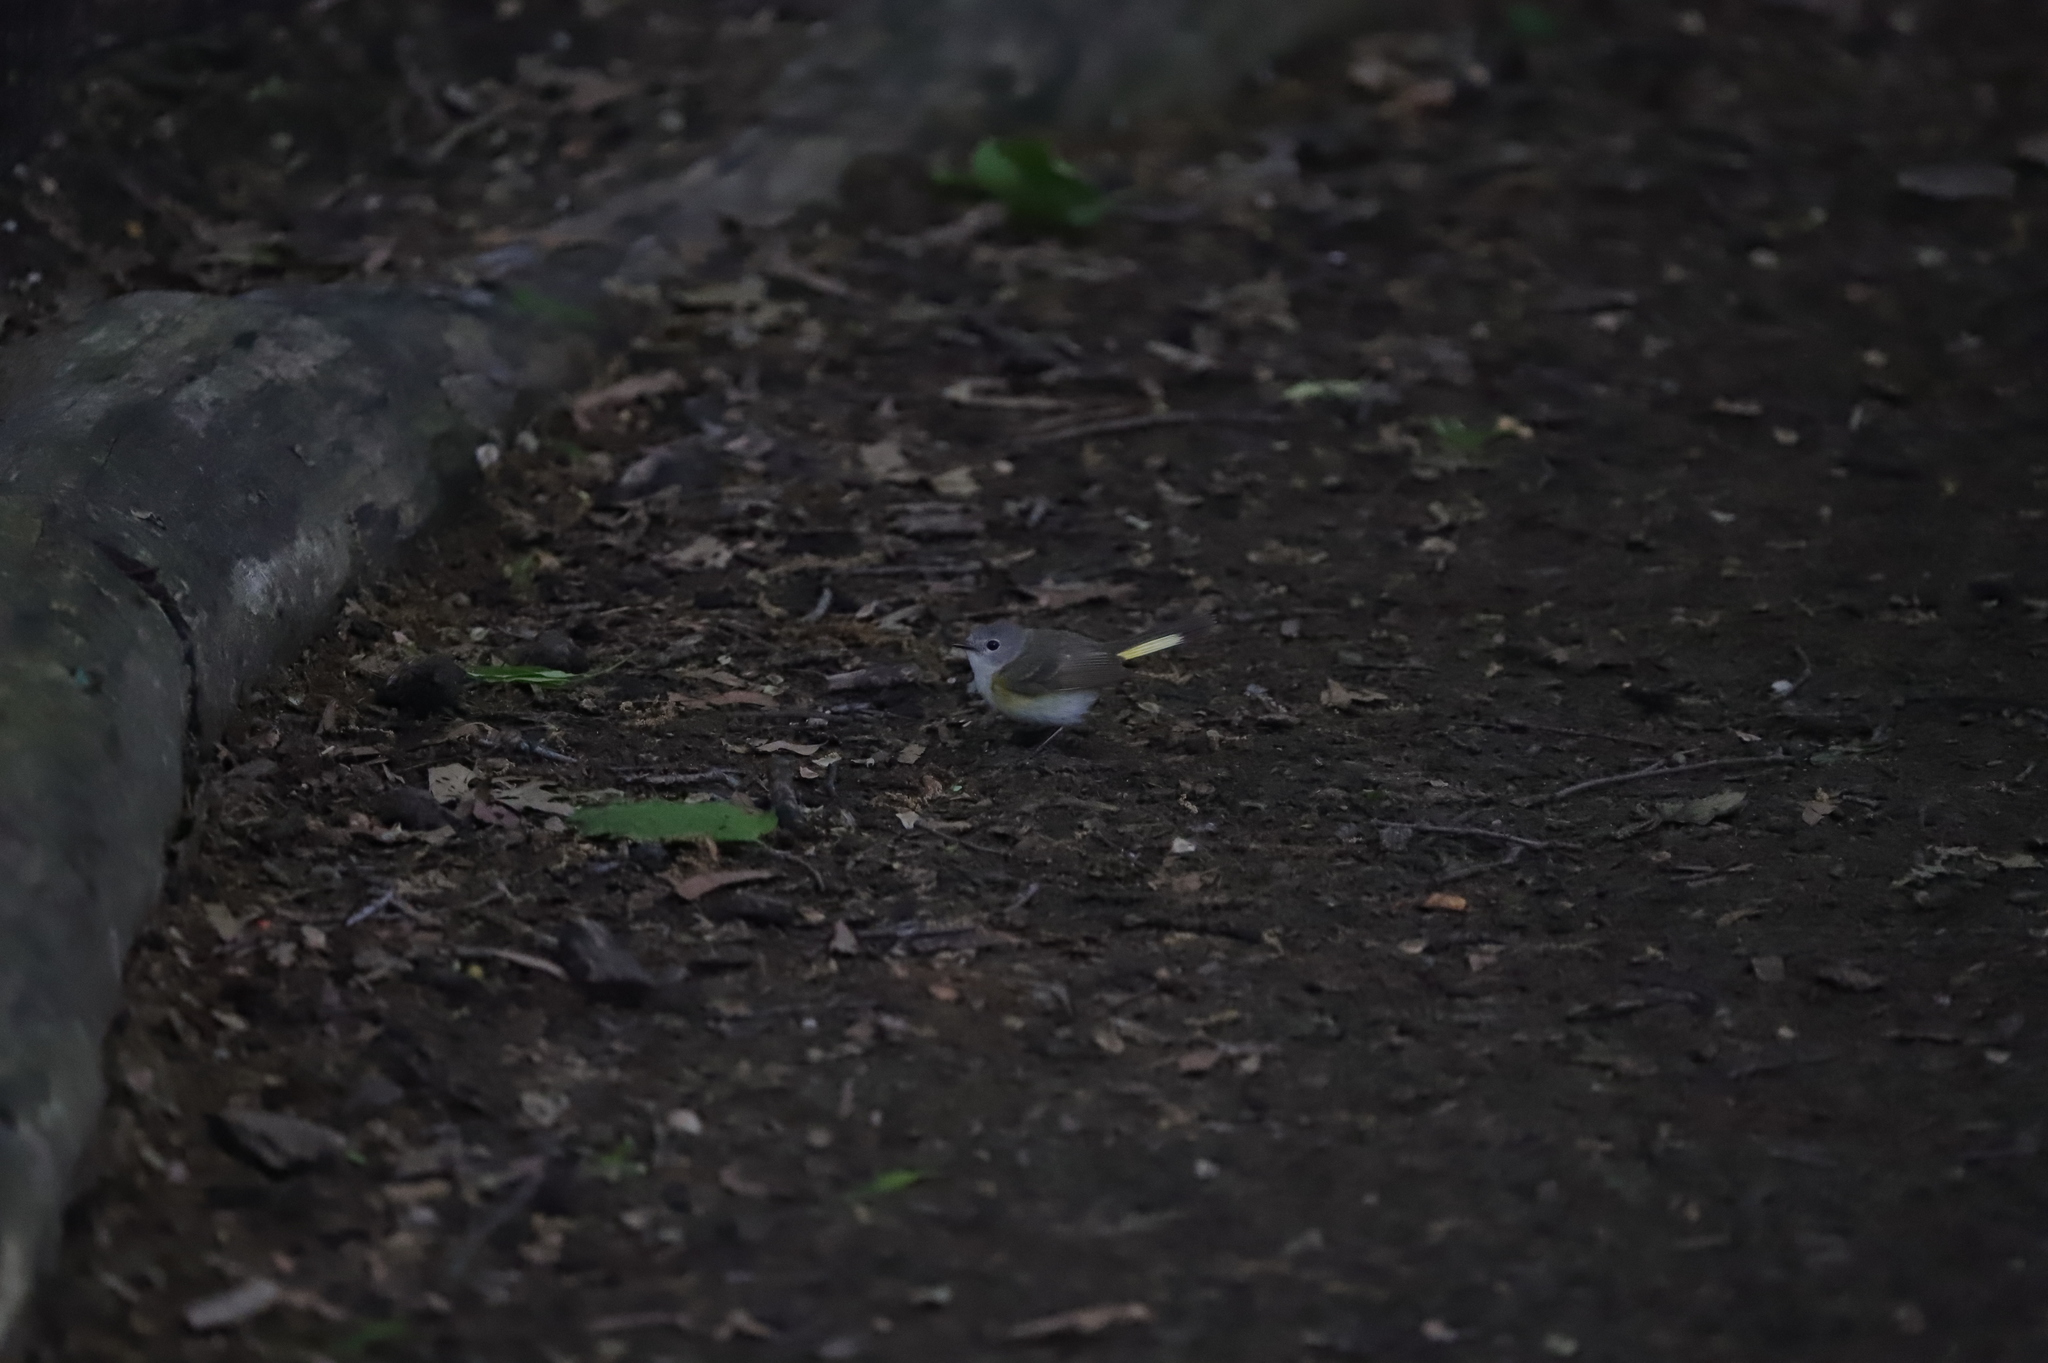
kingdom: Animalia
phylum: Chordata
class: Aves
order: Passeriformes
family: Parulidae
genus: Setophaga
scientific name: Setophaga ruticilla
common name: American redstart
